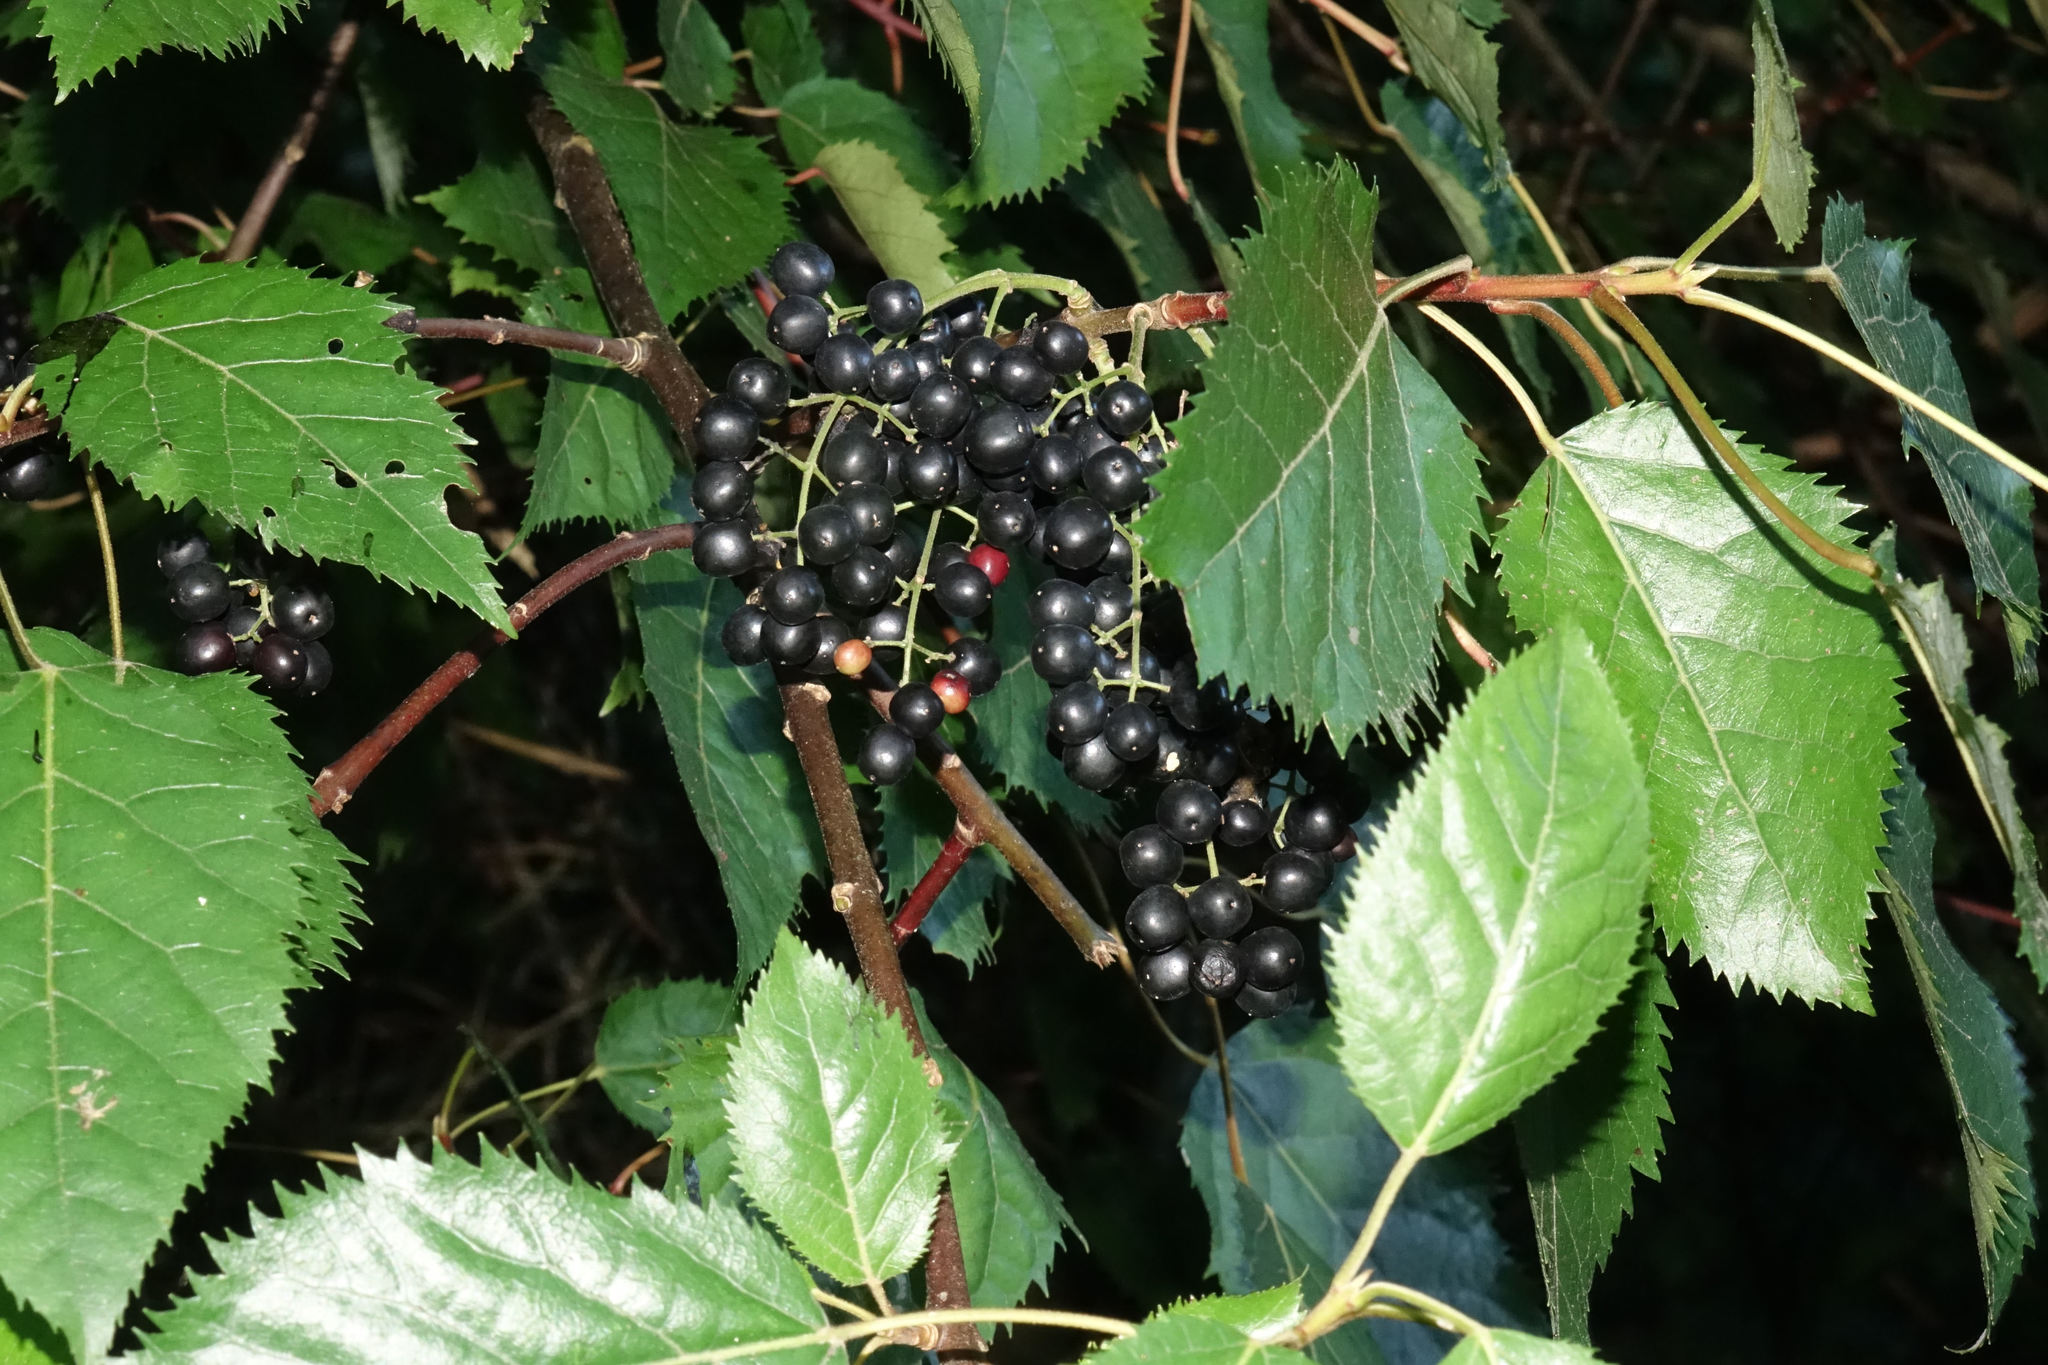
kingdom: Plantae
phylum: Tracheophyta
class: Magnoliopsida
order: Oxalidales
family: Elaeocarpaceae
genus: Aristotelia
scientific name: Aristotelia serrata
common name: New zealand wineberry
